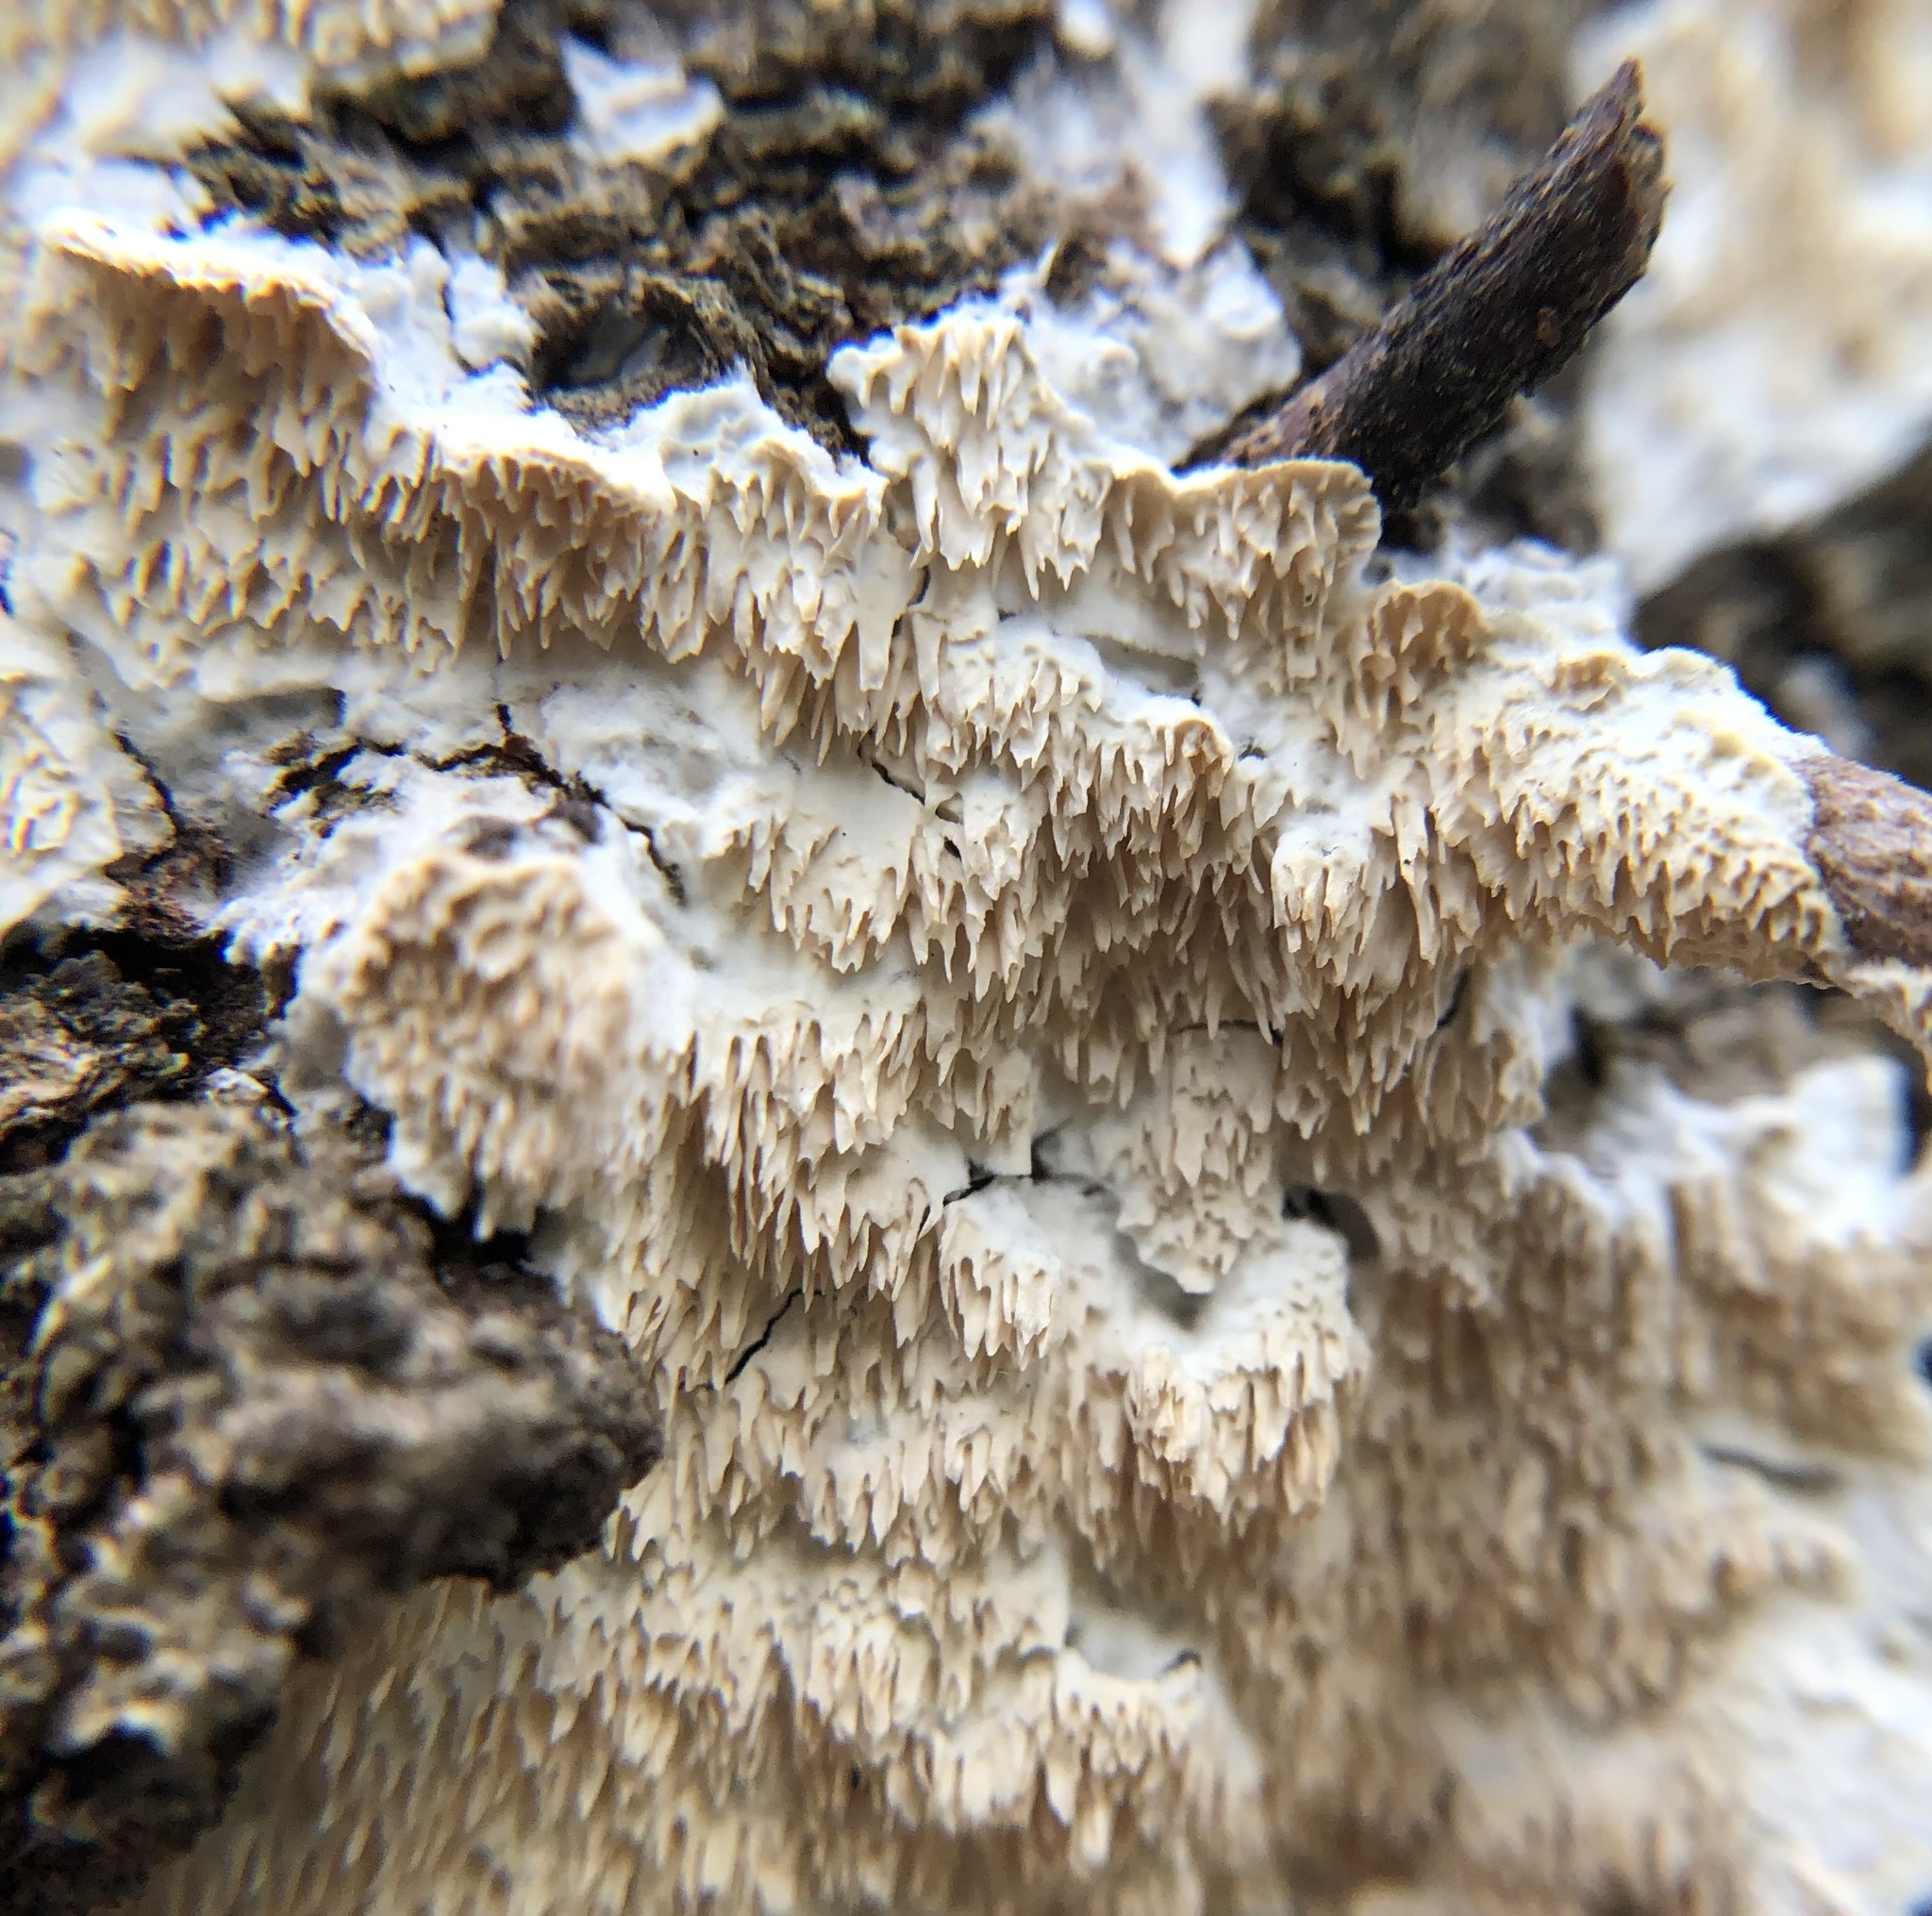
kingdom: Fungi
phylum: Basidiomycota
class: Agaricomycetes
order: Polyporales
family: Irpicaceae
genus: Irpex
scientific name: Irpex lacteus
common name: Milk-white toothed polypore
